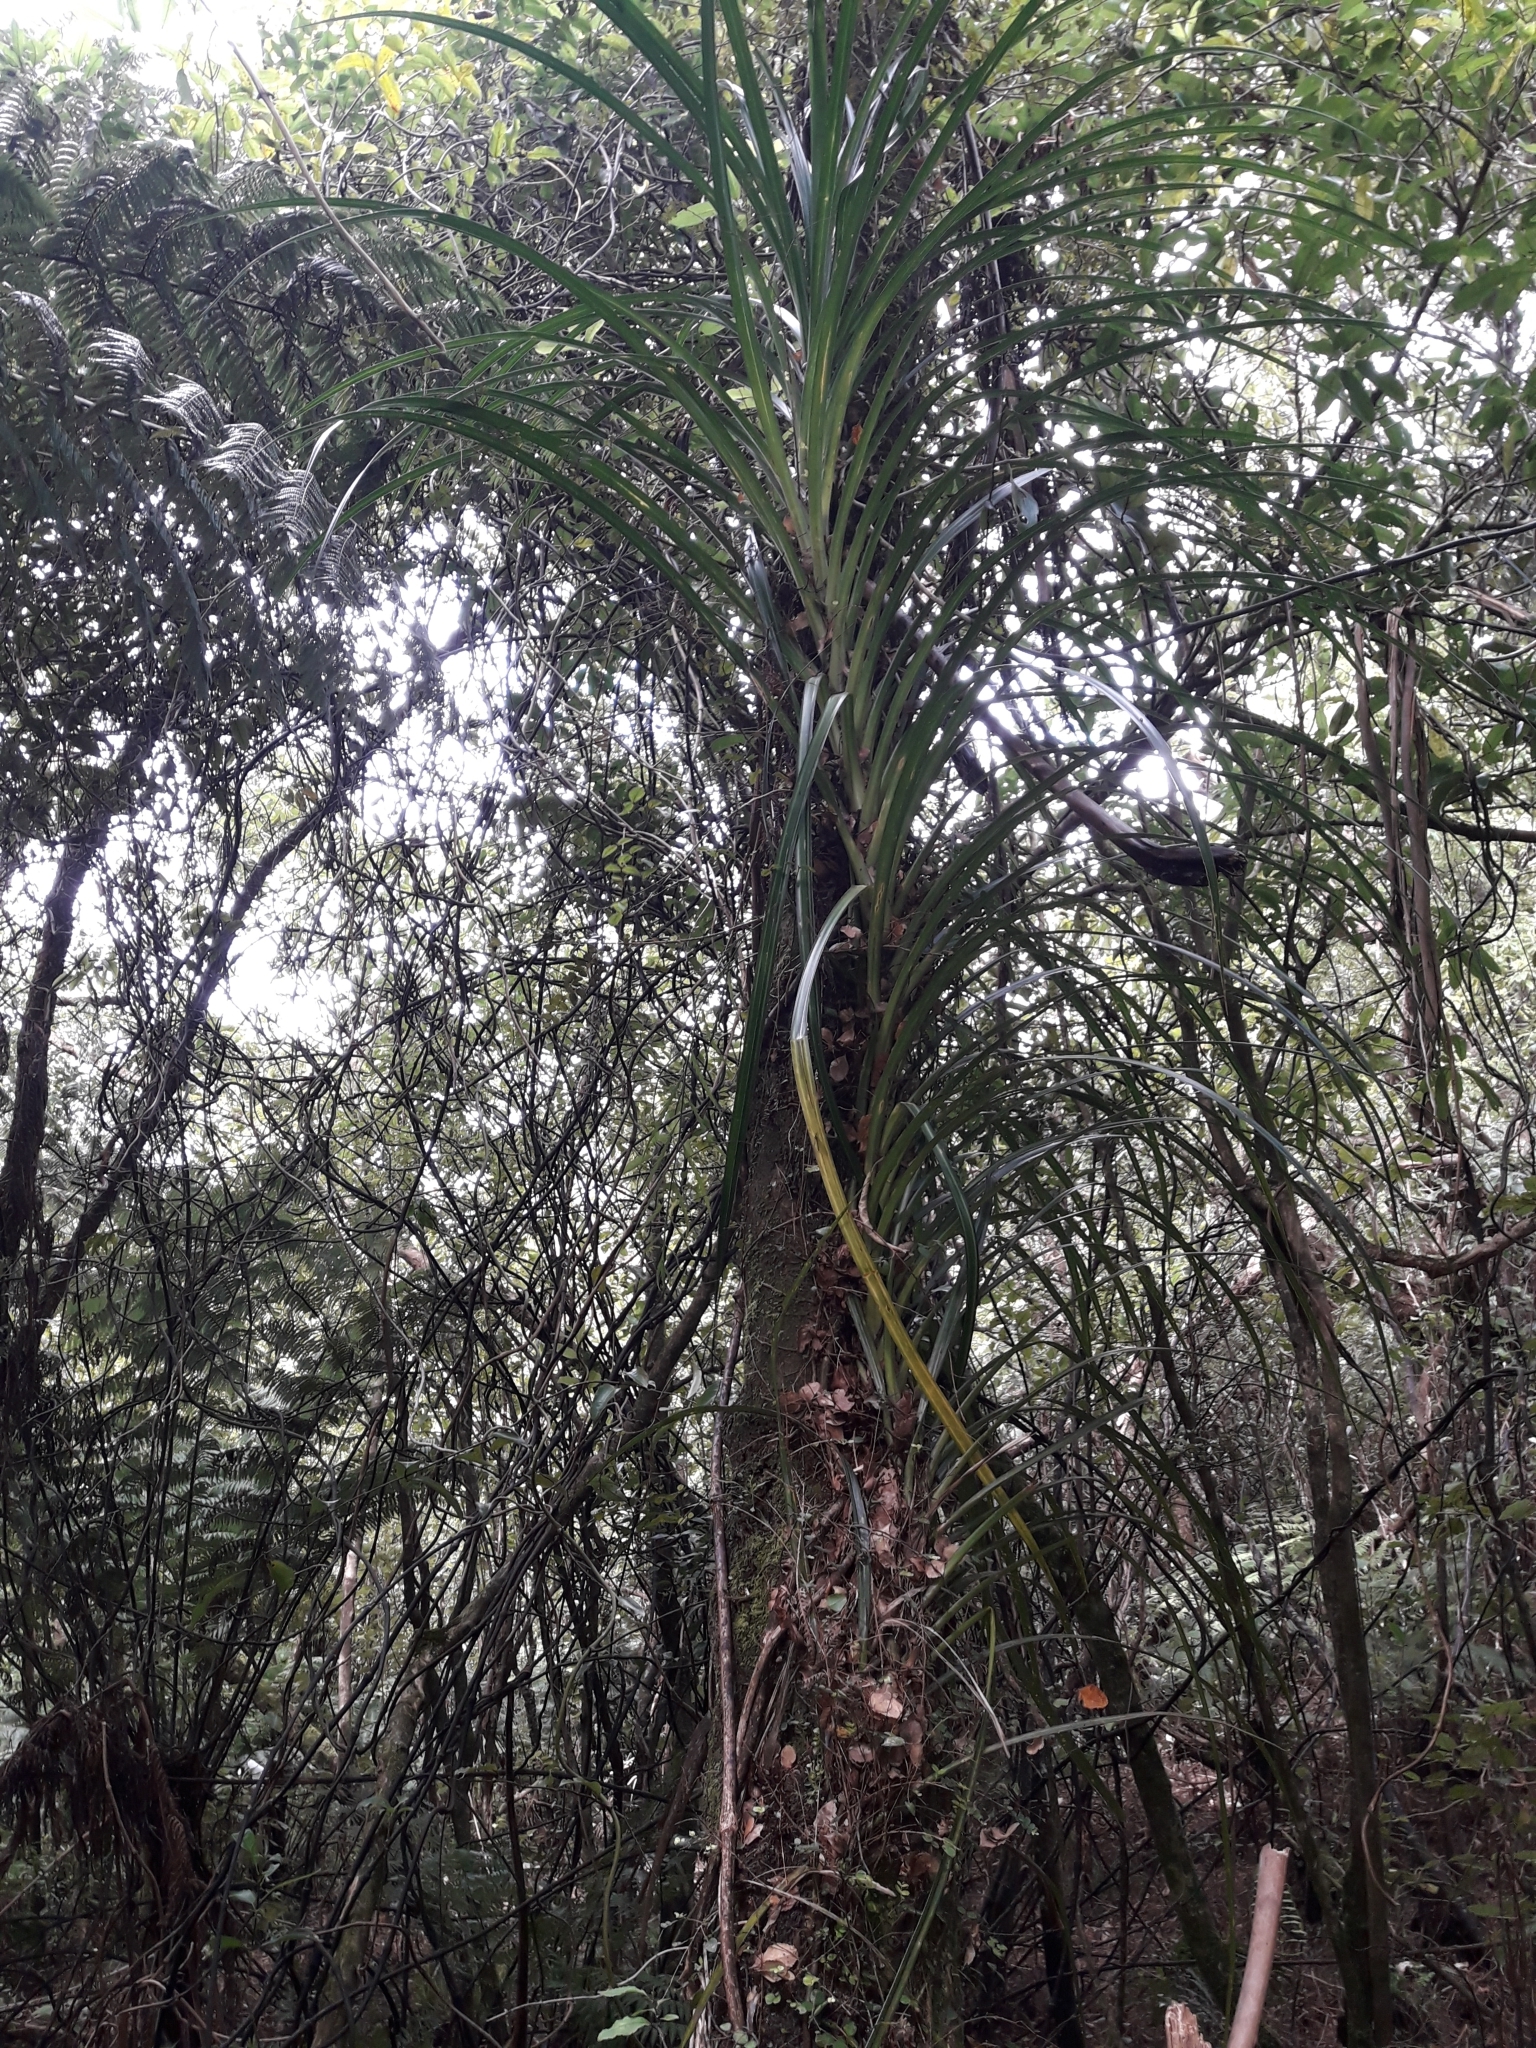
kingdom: Plantae
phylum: Tracheophyta
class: Liliopsida
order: Pandanales
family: Pandanaceae
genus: Freycinetia
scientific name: Freycinetia banksii
